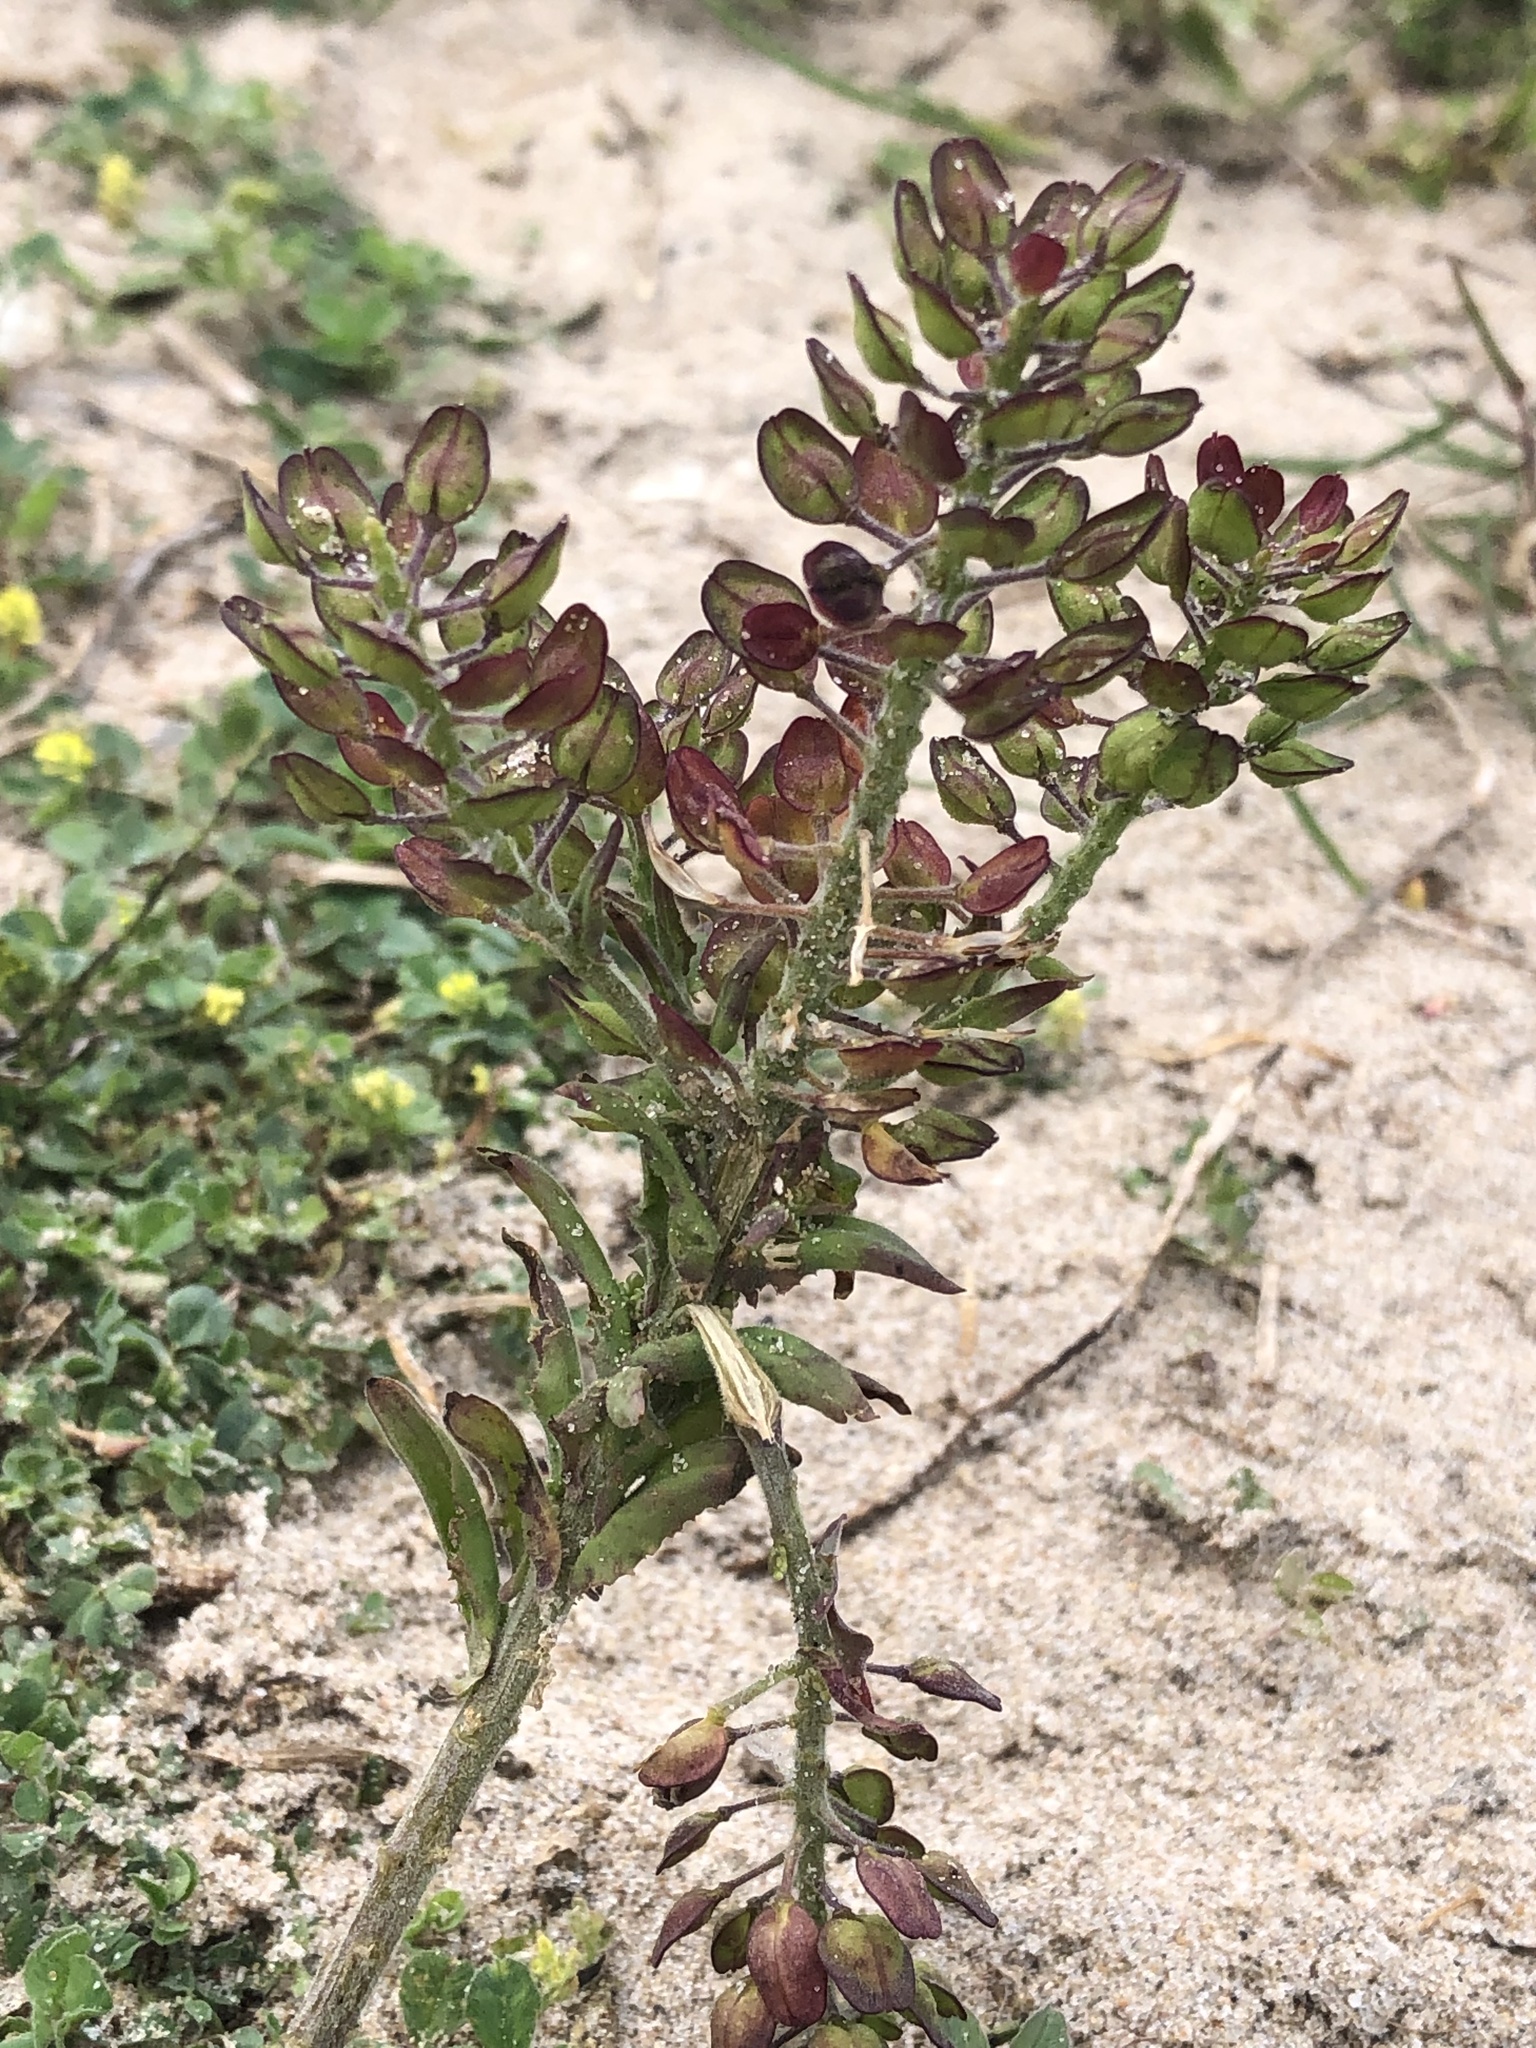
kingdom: Plantae
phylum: Tracheophyta
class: Magnoliopsida
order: Brassicales
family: Brassicaceae
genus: Lepidium
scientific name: Lepidium campestre
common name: Field pepperwort
